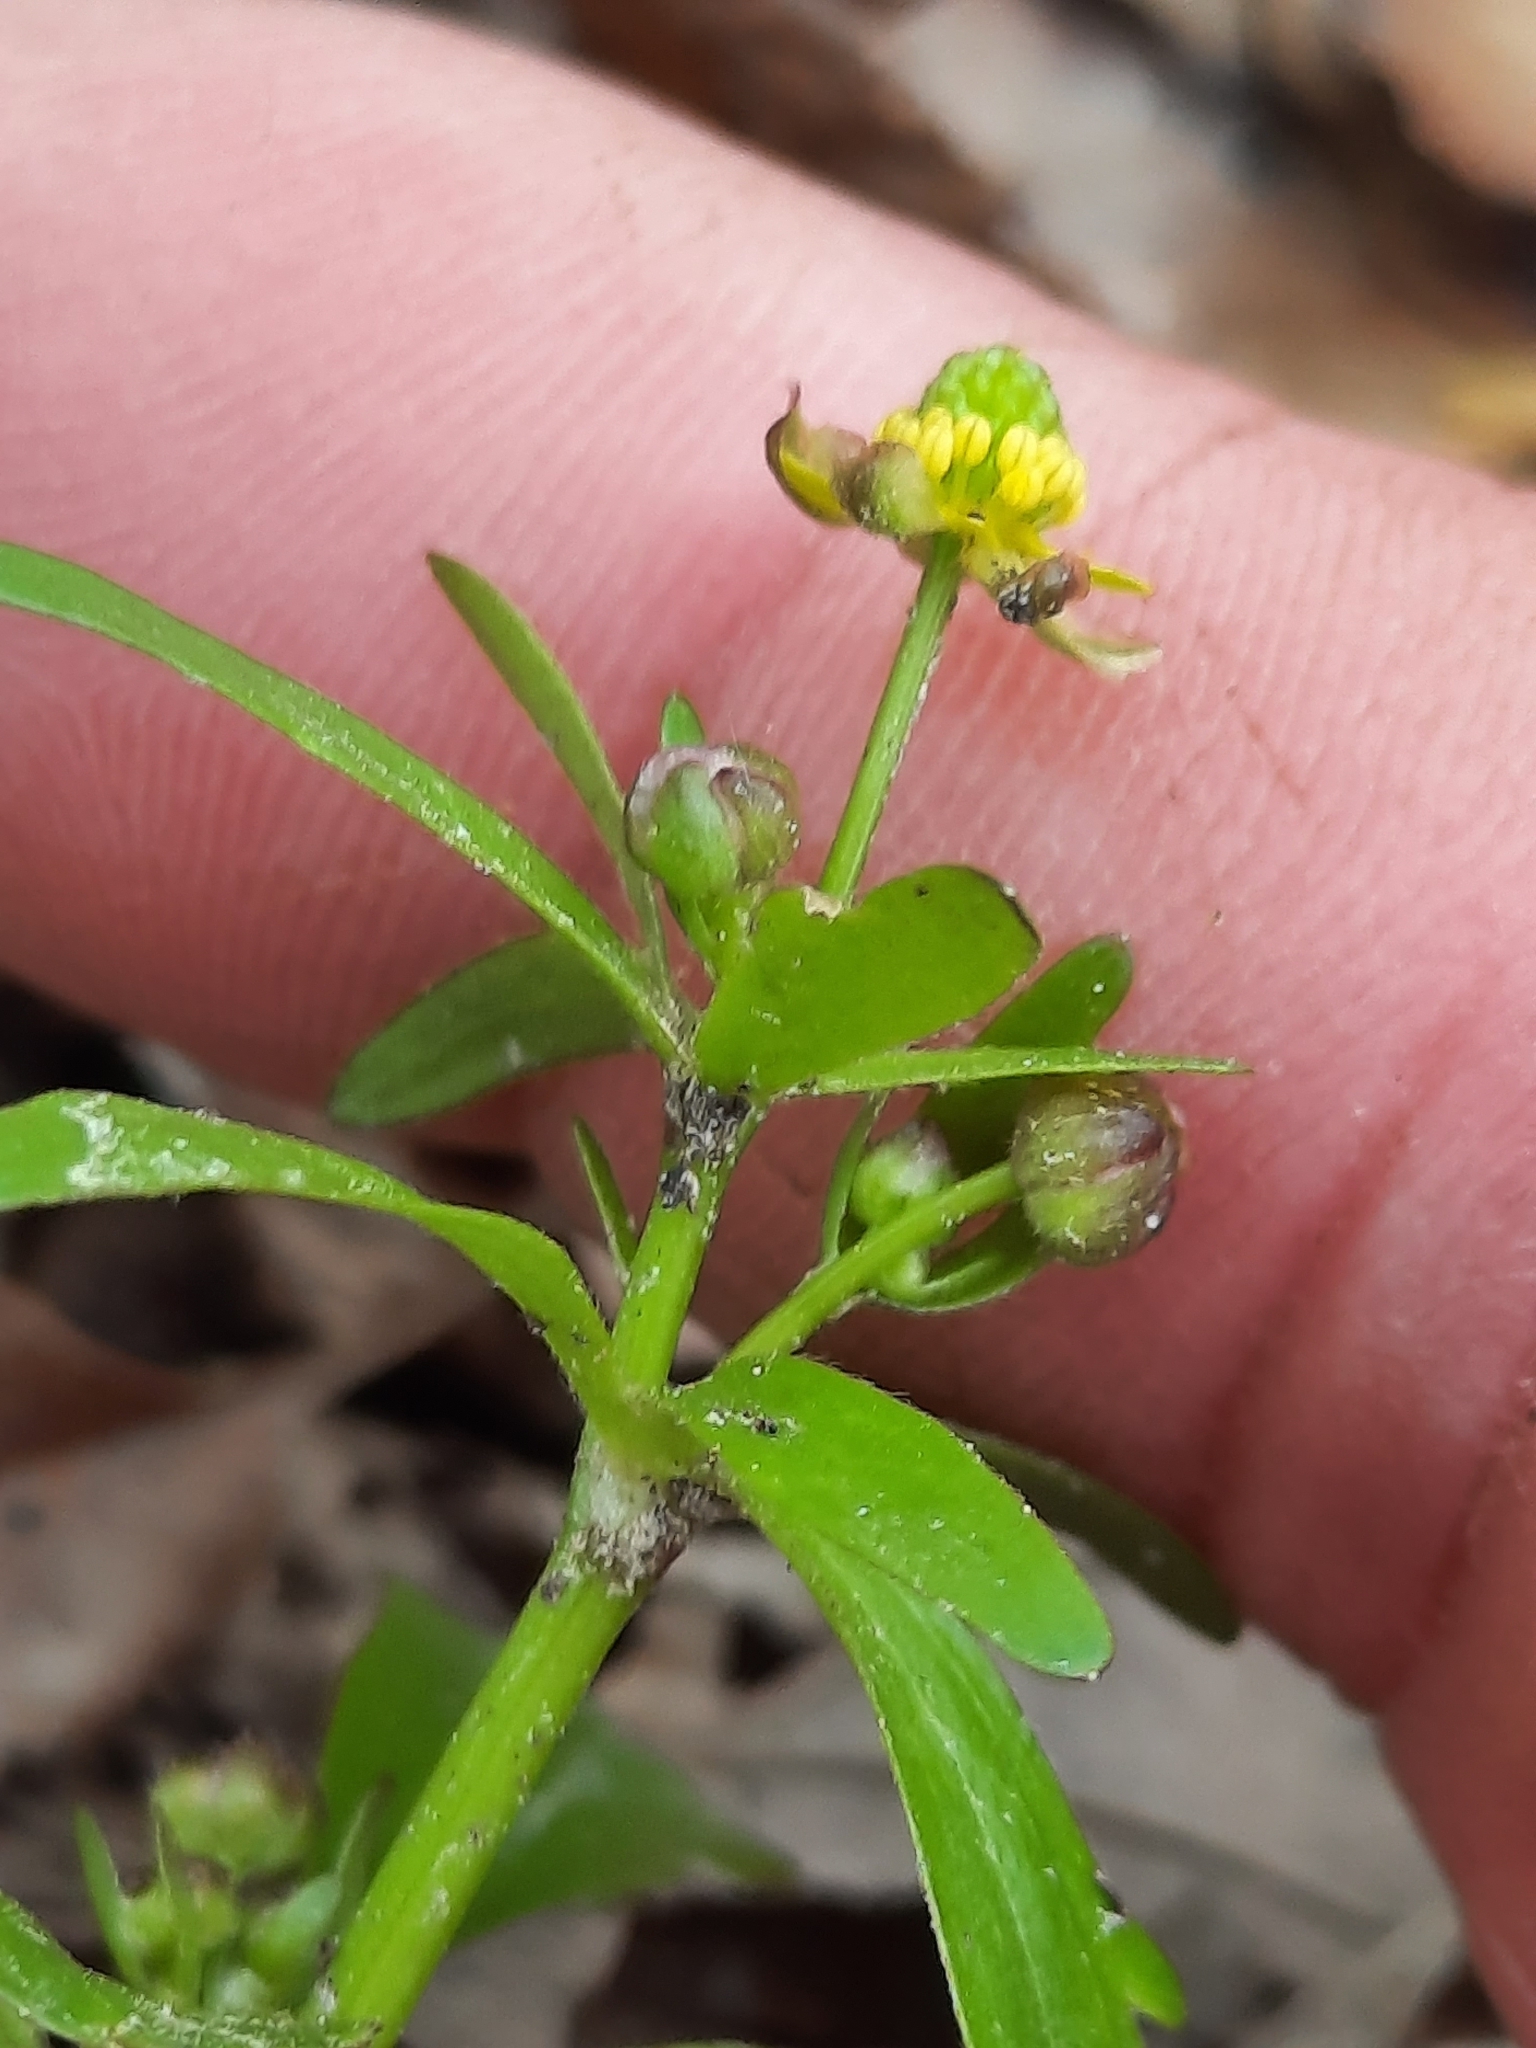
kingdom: Plantae
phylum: Tracheophyta
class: Magnoliopsida
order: Ranunculales
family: Ranunculaceae
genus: Ranunculus
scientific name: Ranunculus abortivus
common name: Early wood buttercup
